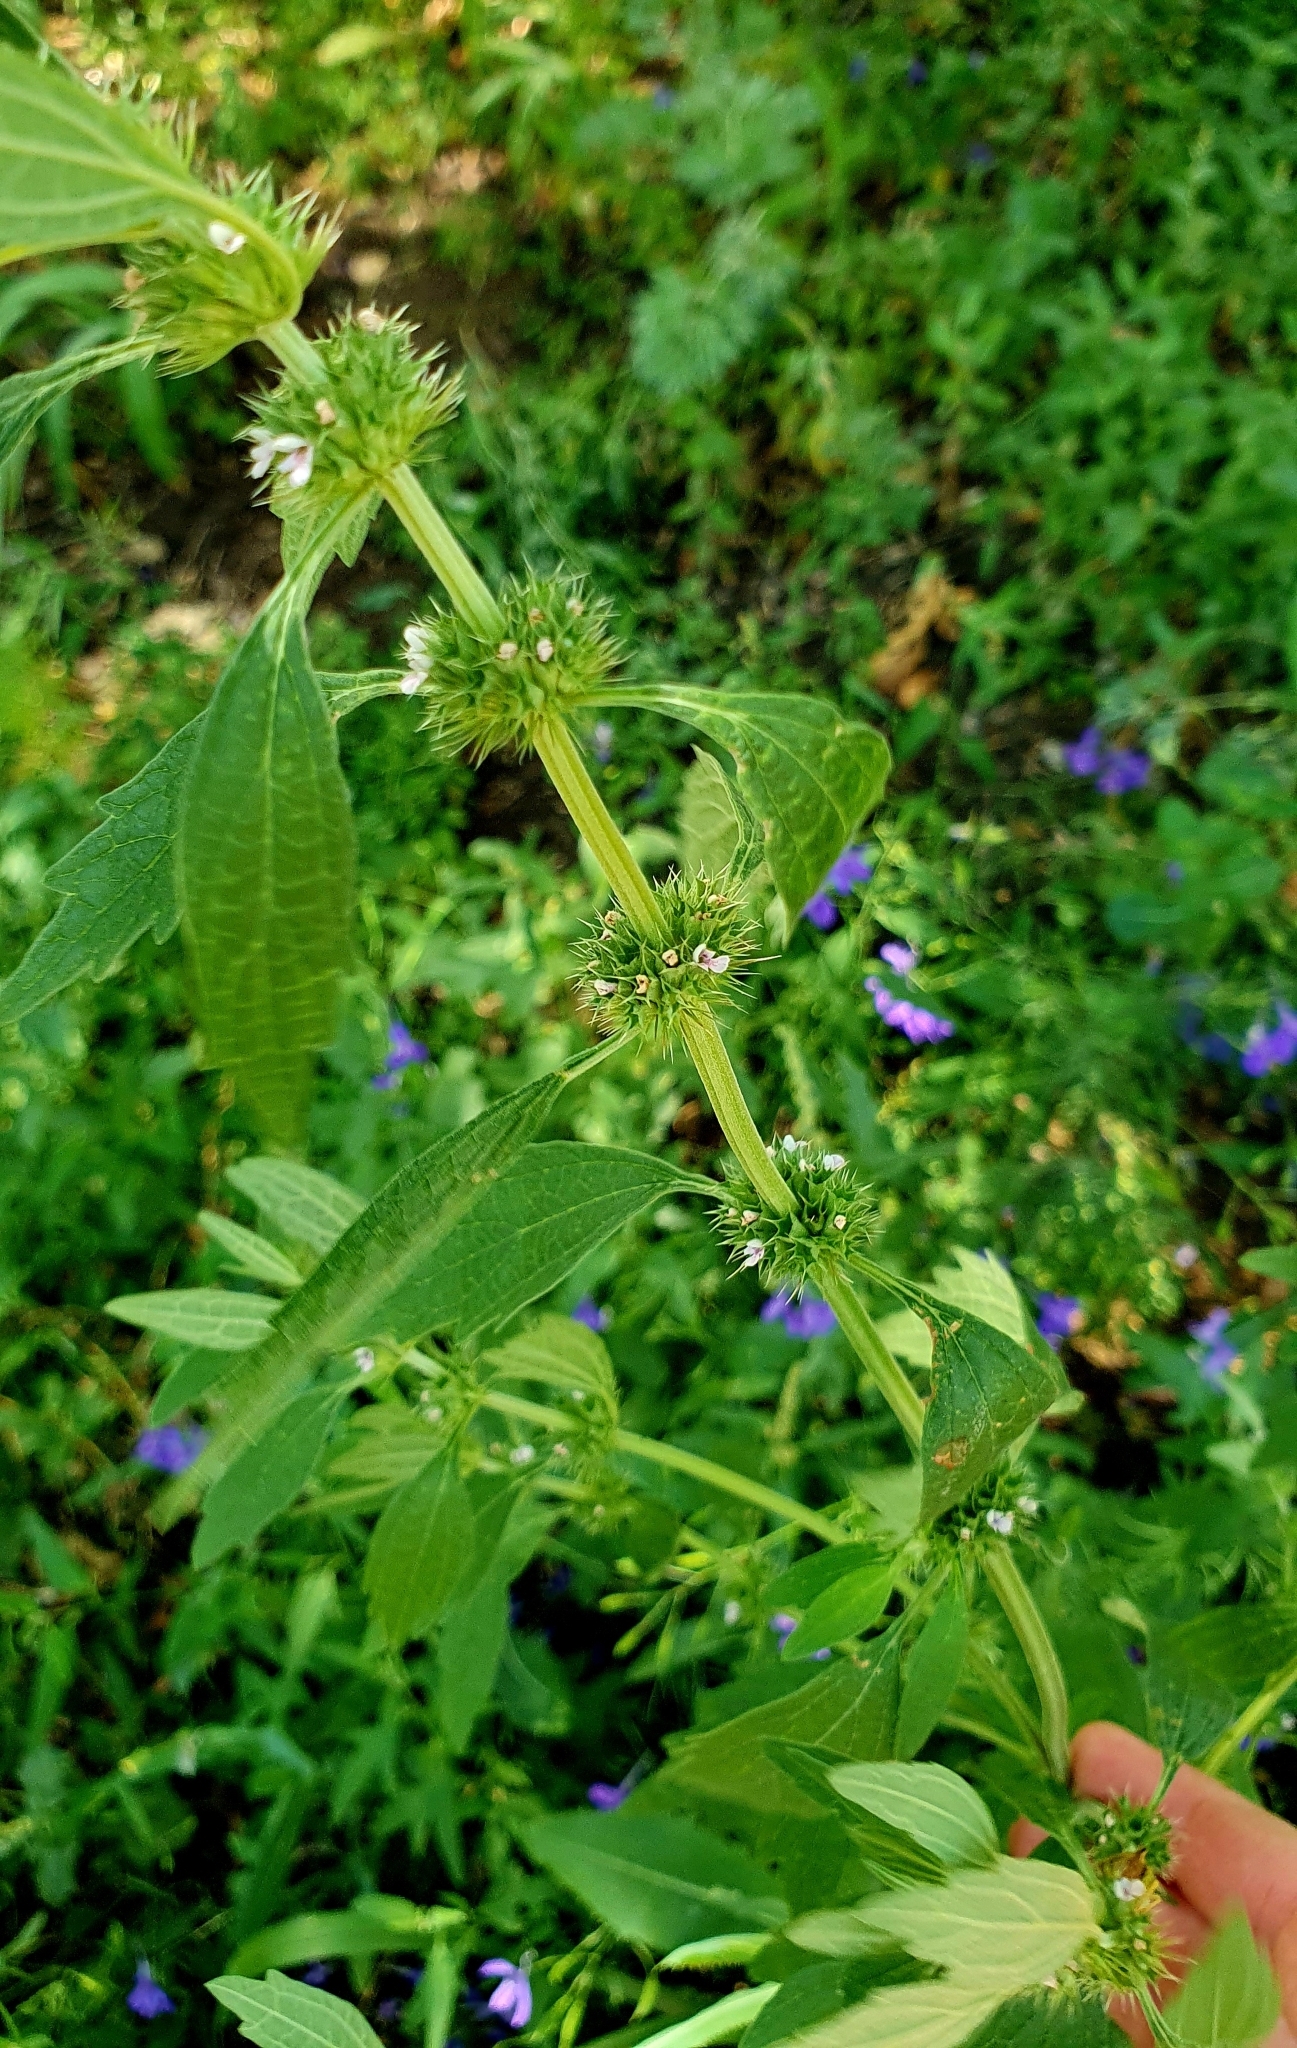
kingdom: Plantae
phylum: Tracheophyta
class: Magnoliopsida
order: Lamiales
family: Lamiaceae
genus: Chaiturus
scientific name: Chaiturus marrubiastrum
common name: Lion's tail
